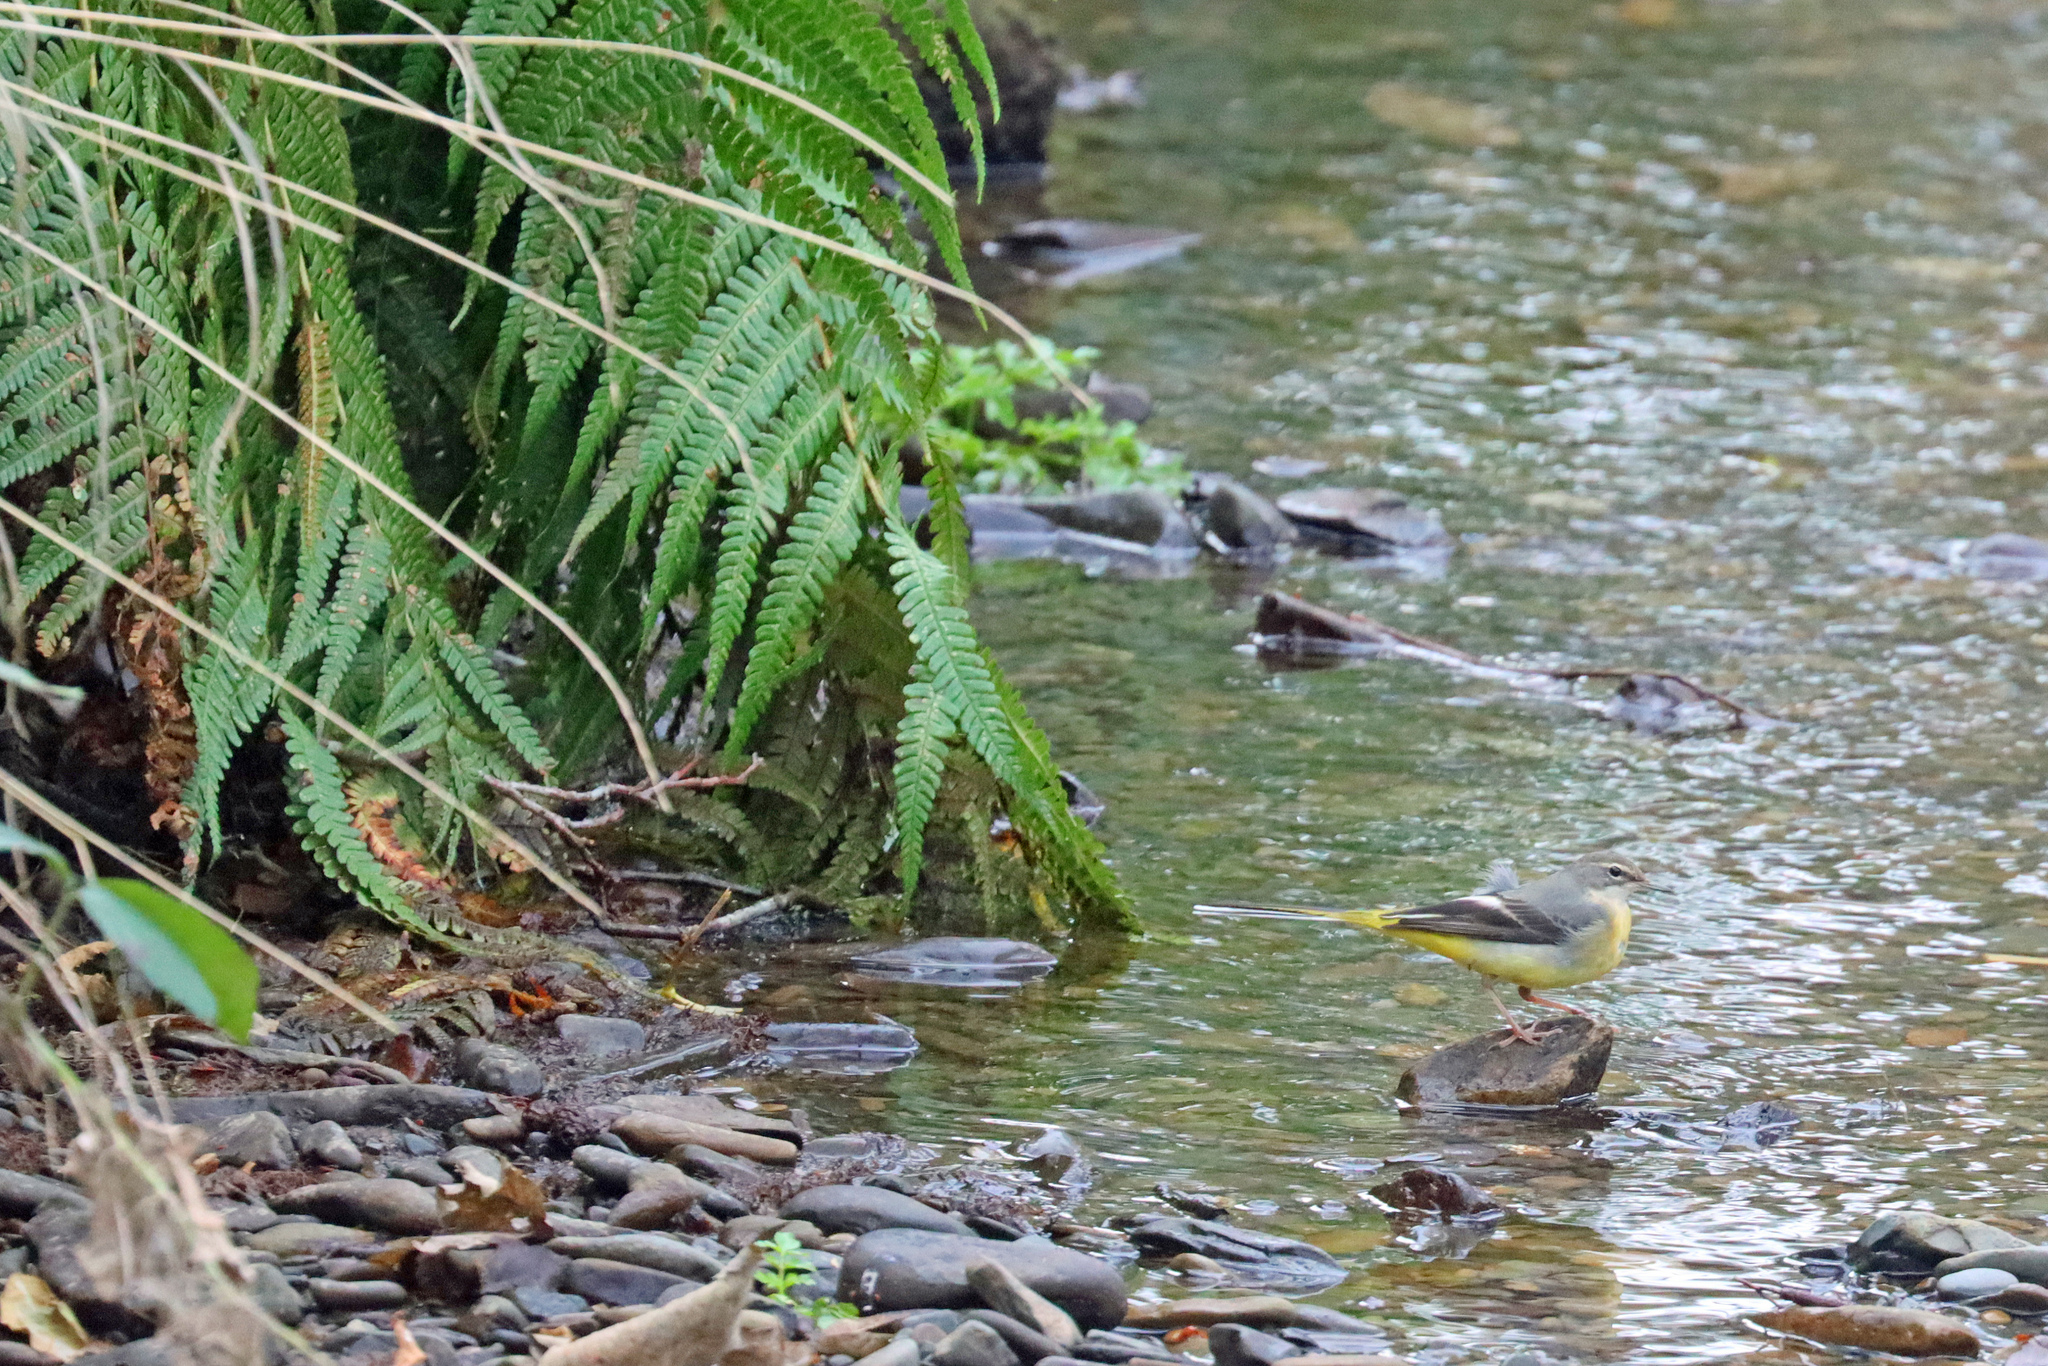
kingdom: Animalia
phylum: Chordata
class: Aves
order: Passeriformes
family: Motacillidae
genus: Motacilla
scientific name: Motacilla cinerea
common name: Grey wagtail
